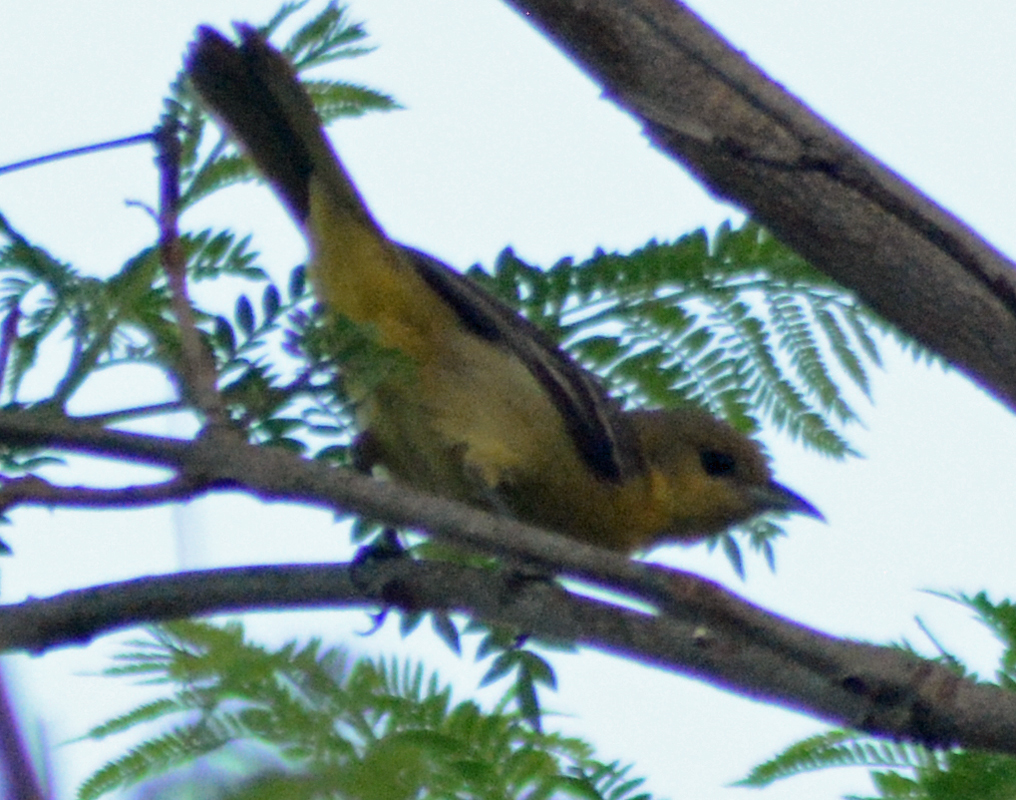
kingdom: Animalia
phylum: Chordata
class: Aves
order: Passeriformes
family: Icteridae
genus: Icterus
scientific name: Icterus spurius
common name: Orchard oriole
